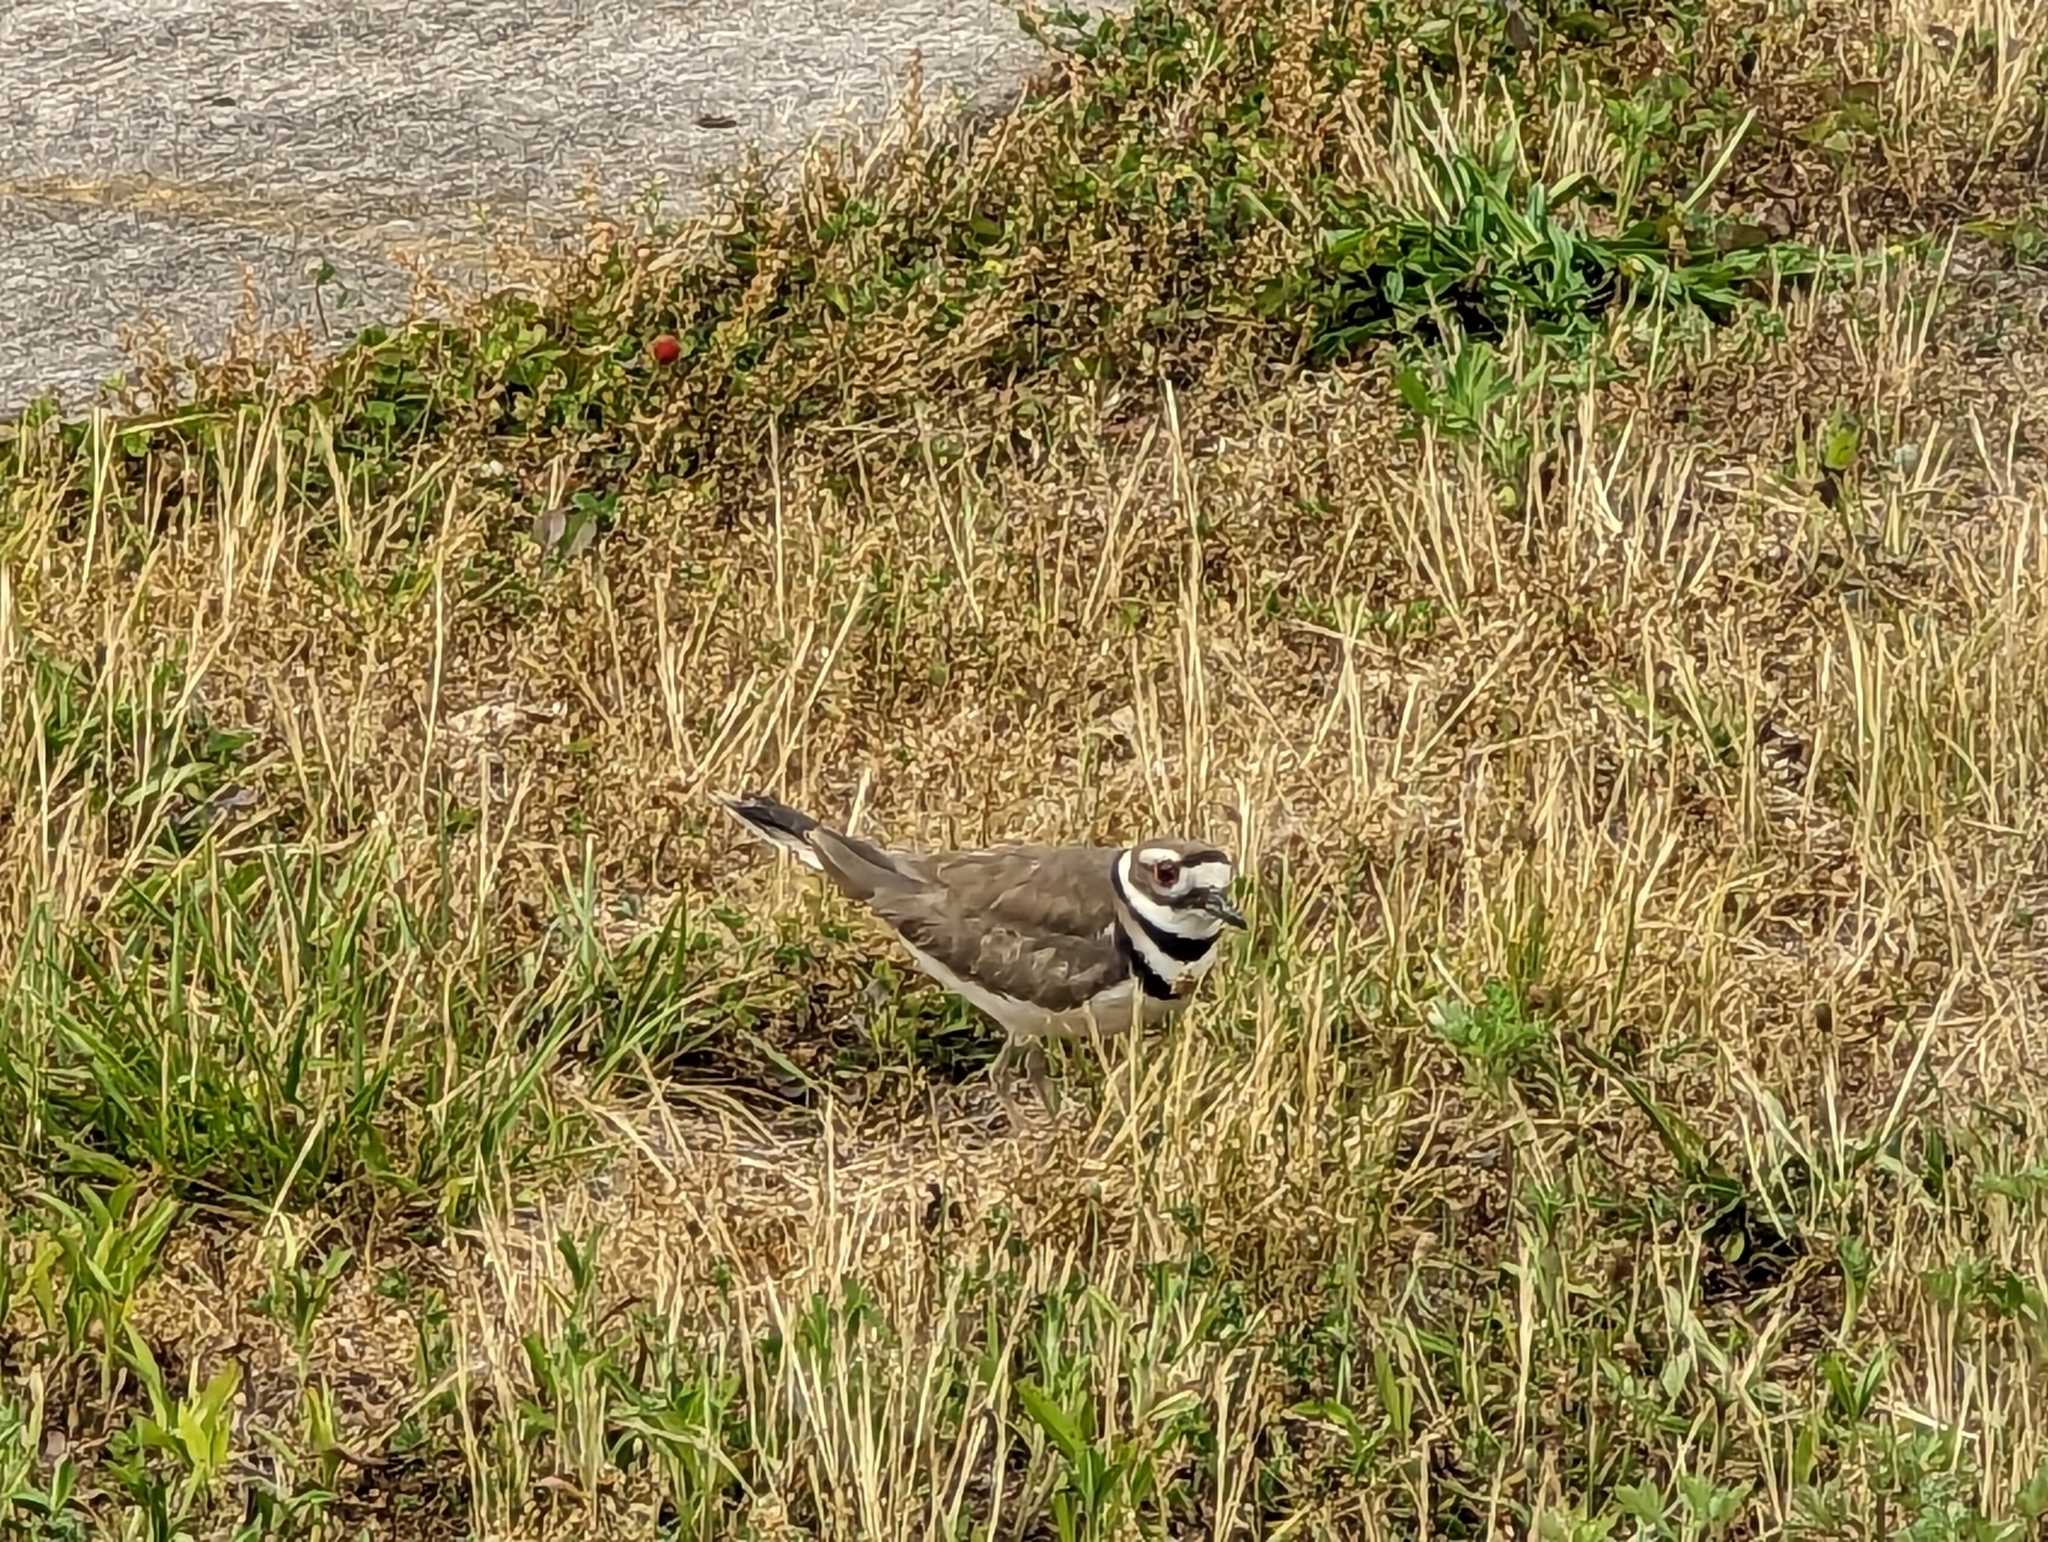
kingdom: Animalia
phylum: Chordata
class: Aves
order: Charadriiformes
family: Charadriidae
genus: Charadrius
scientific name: Charadrius vociferus
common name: Killdeer
